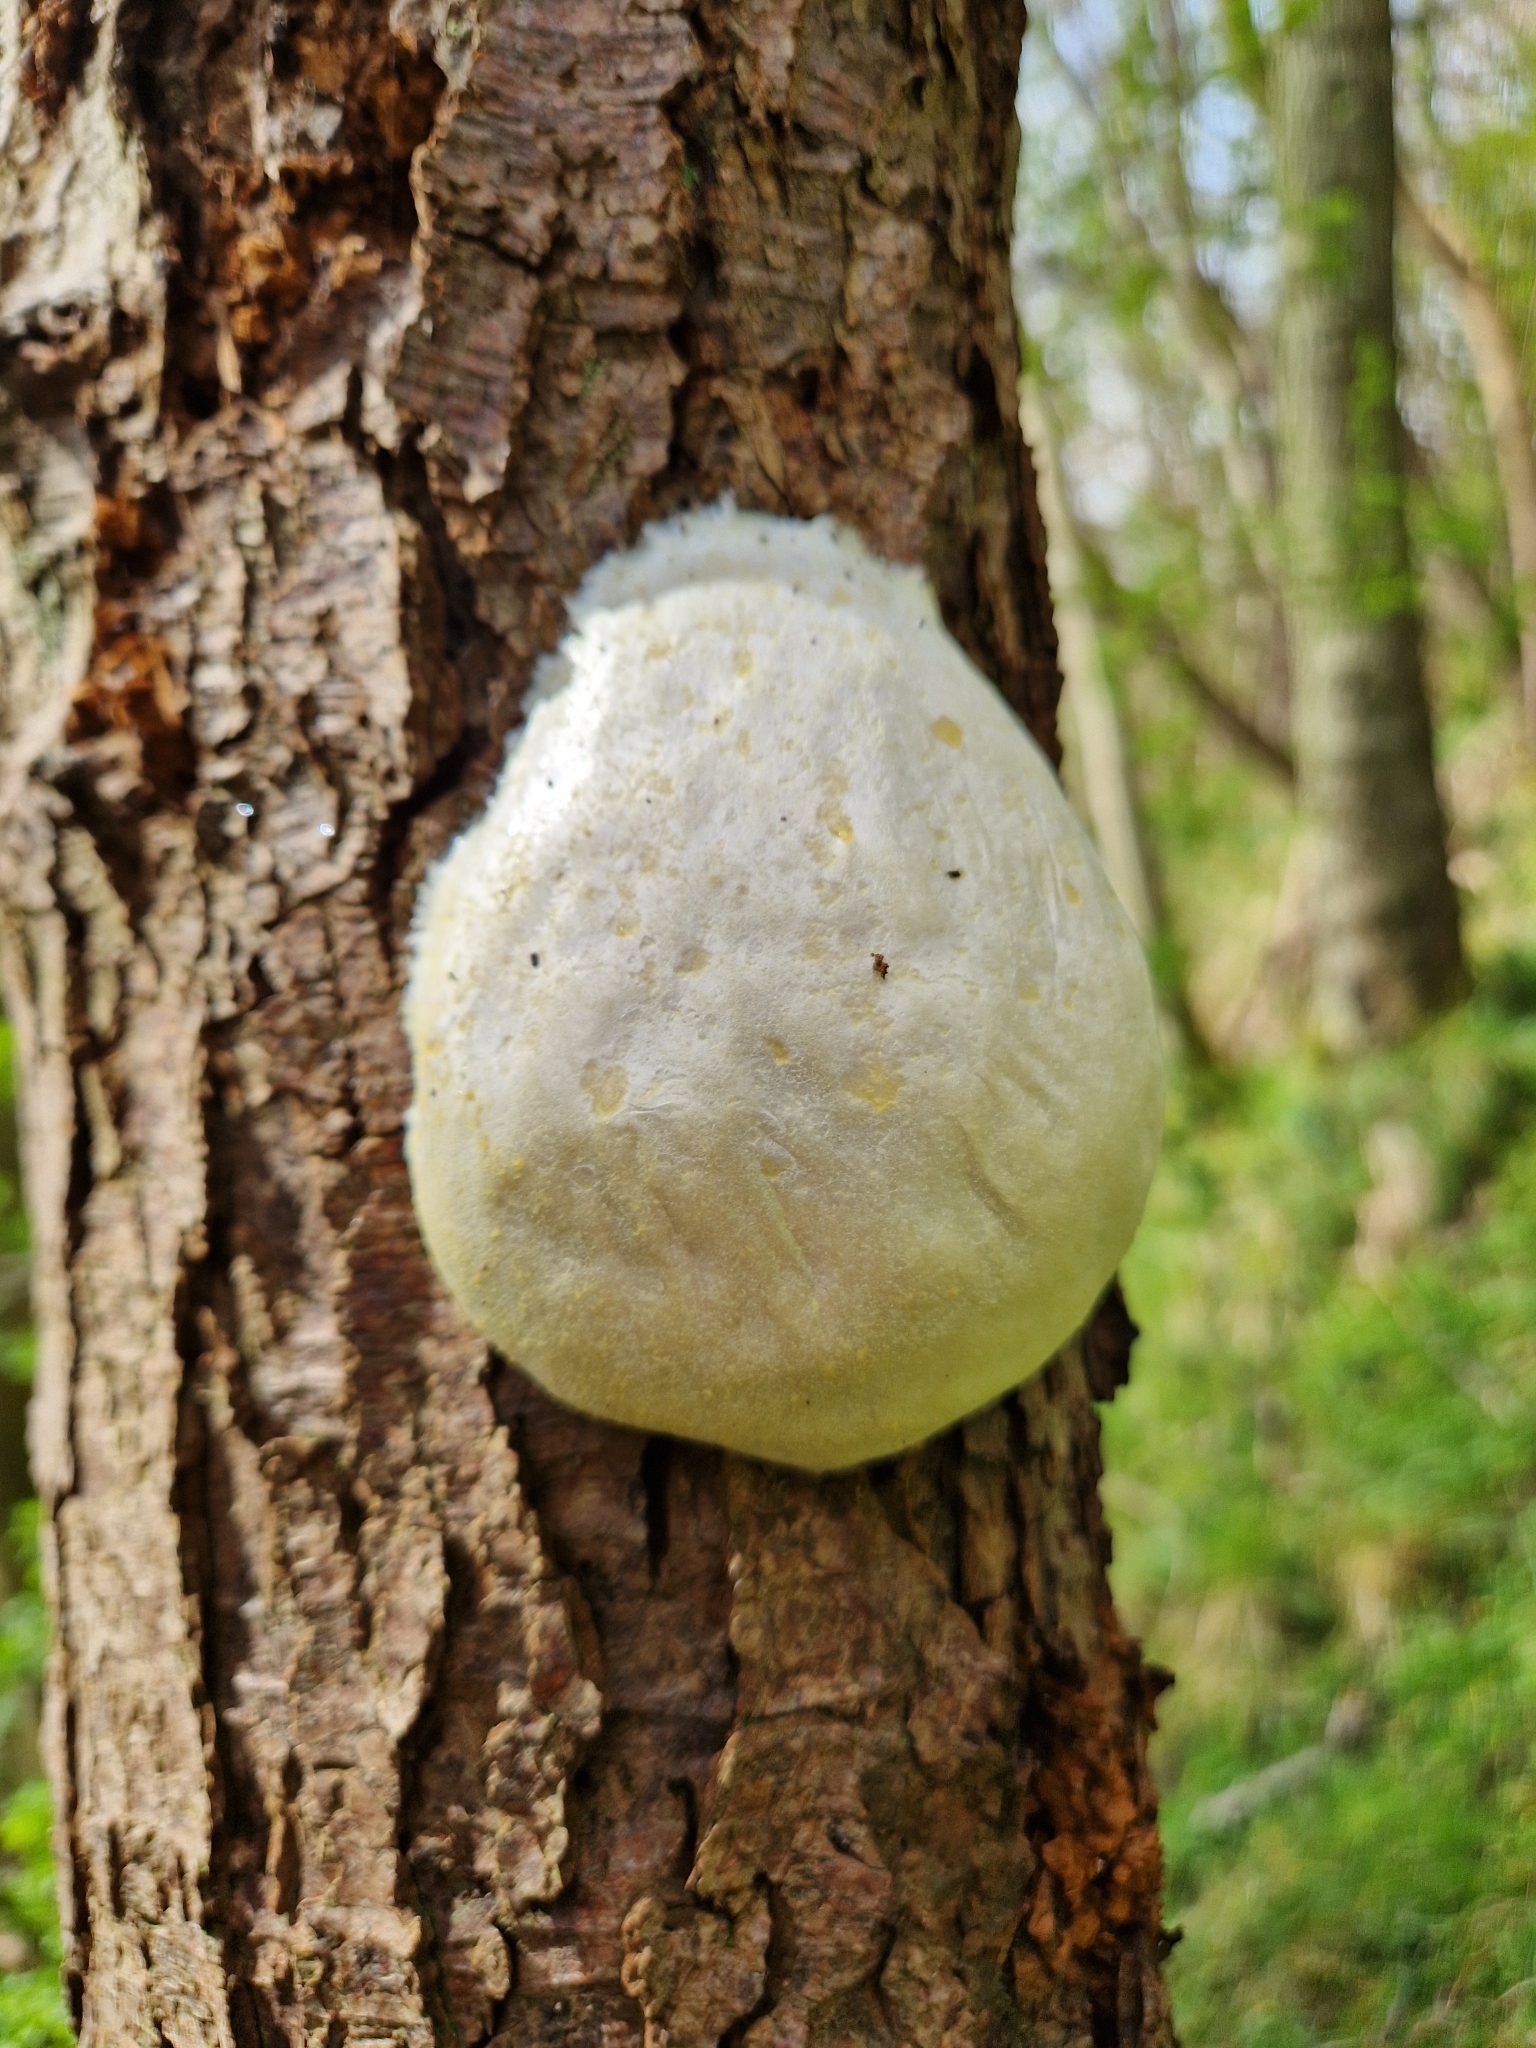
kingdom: Protozoa
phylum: Mycetozoa
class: Myxomycetes
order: Cribrariales
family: Tubiferaceae
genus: Reticularia
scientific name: Reticularia lycoperdon
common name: False puffball
